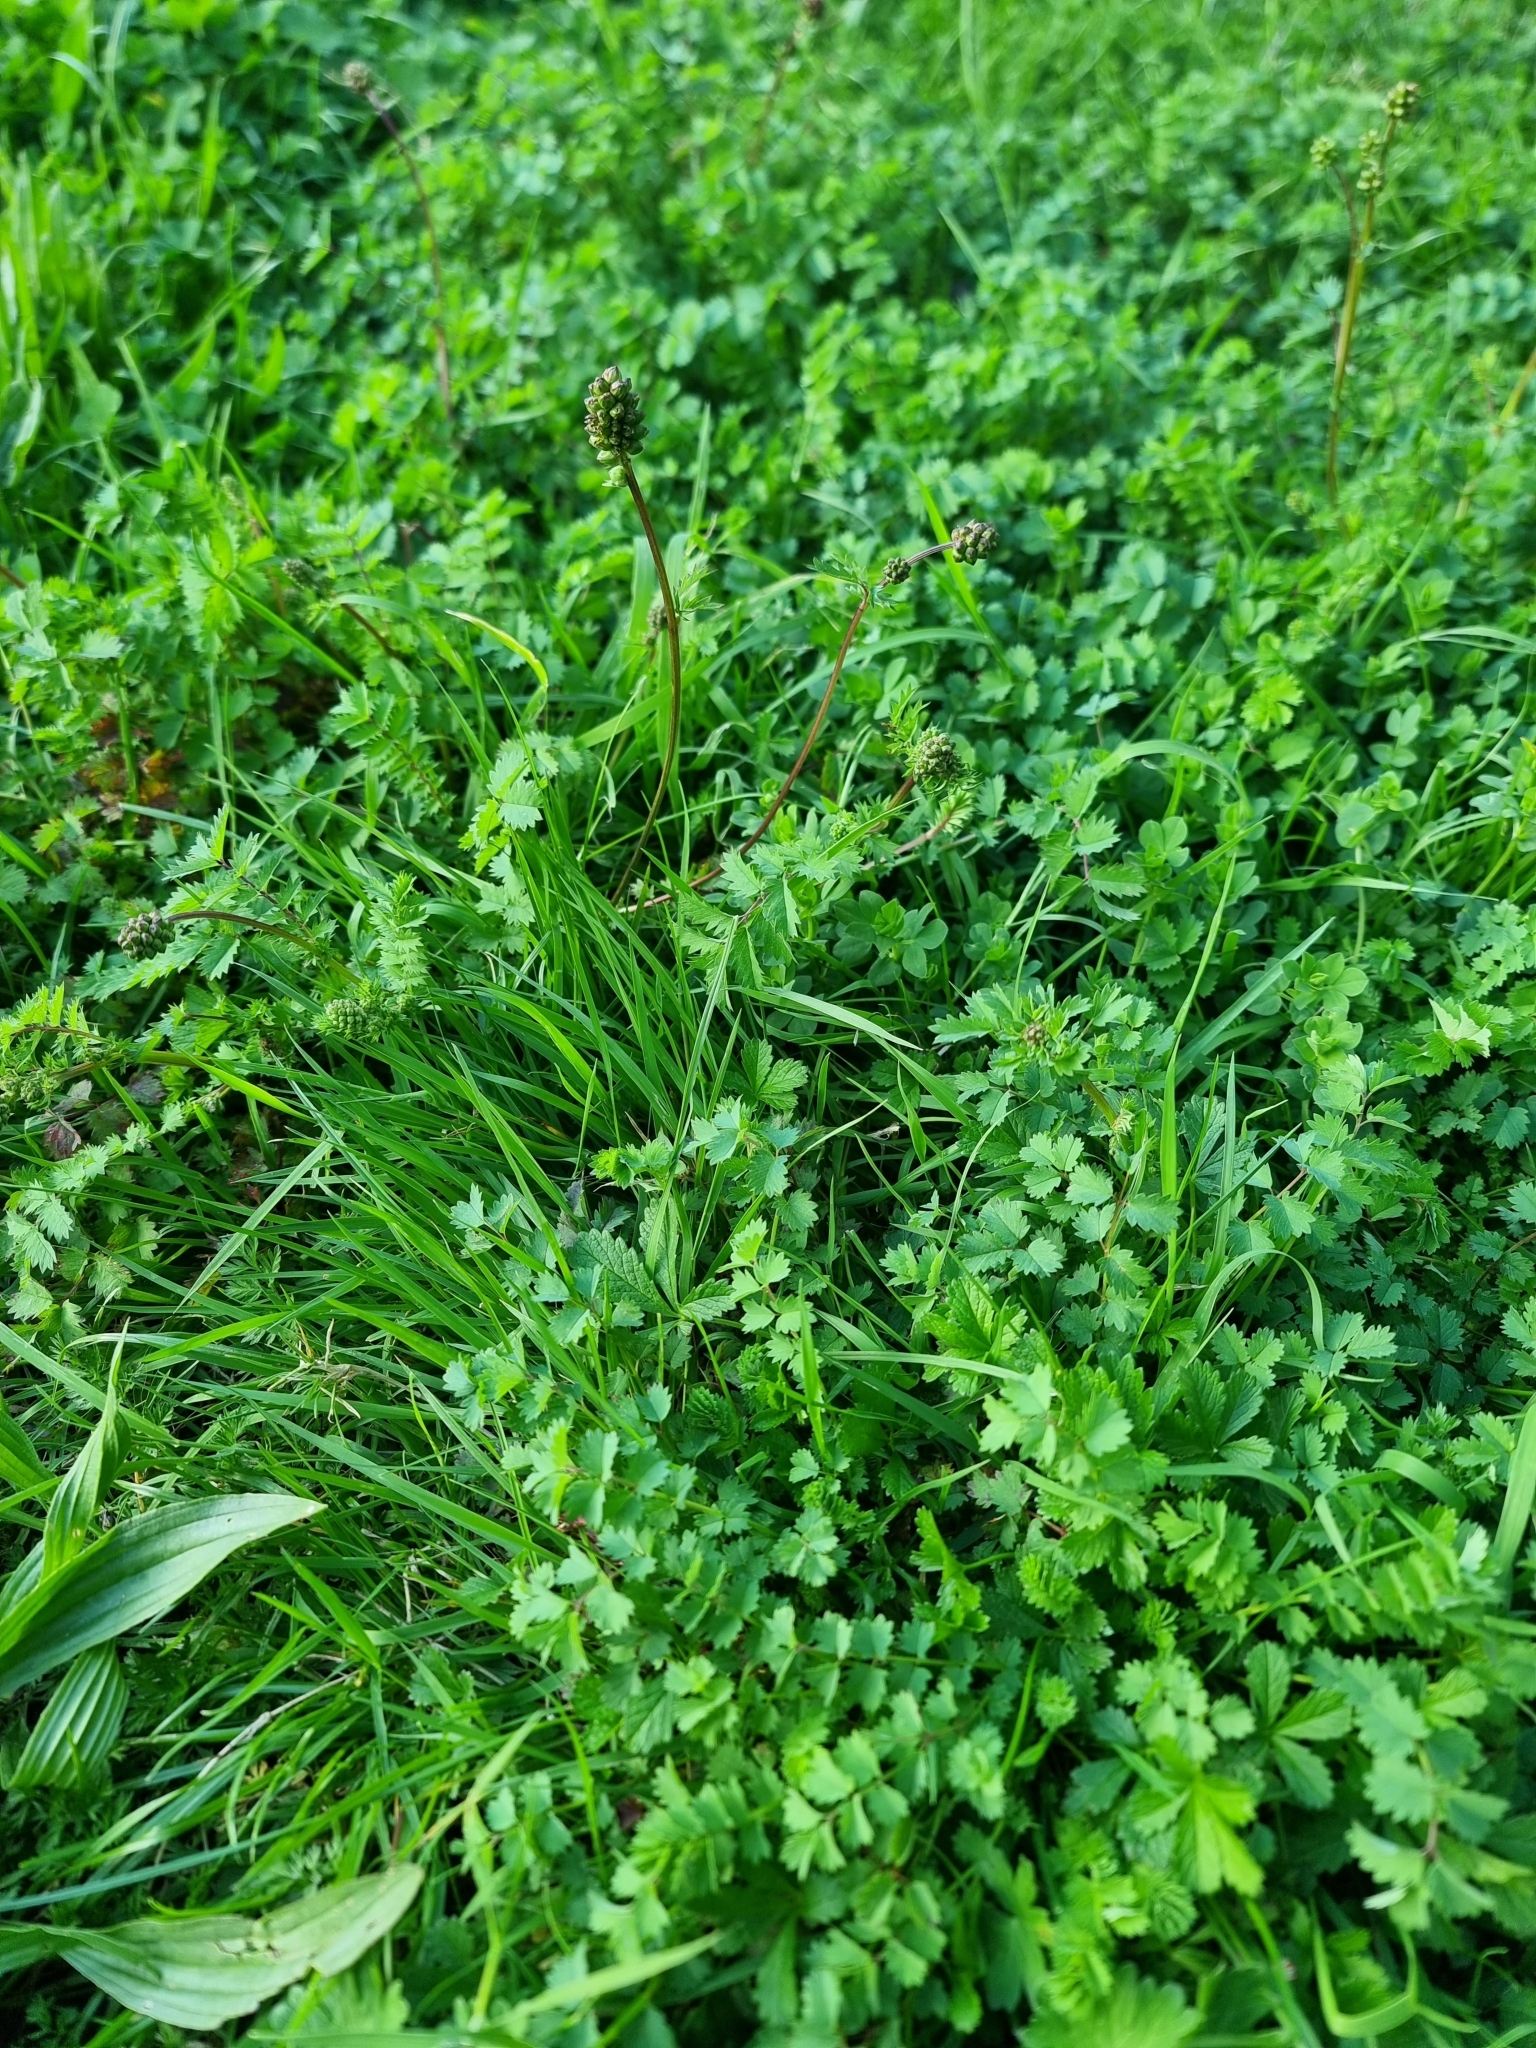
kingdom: Plantae
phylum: Tracheophyta
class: Magnoliopsida
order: Rosales
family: Rosaceae
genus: Poterium
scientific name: Poterium sanguisorba
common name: Salad burnet
